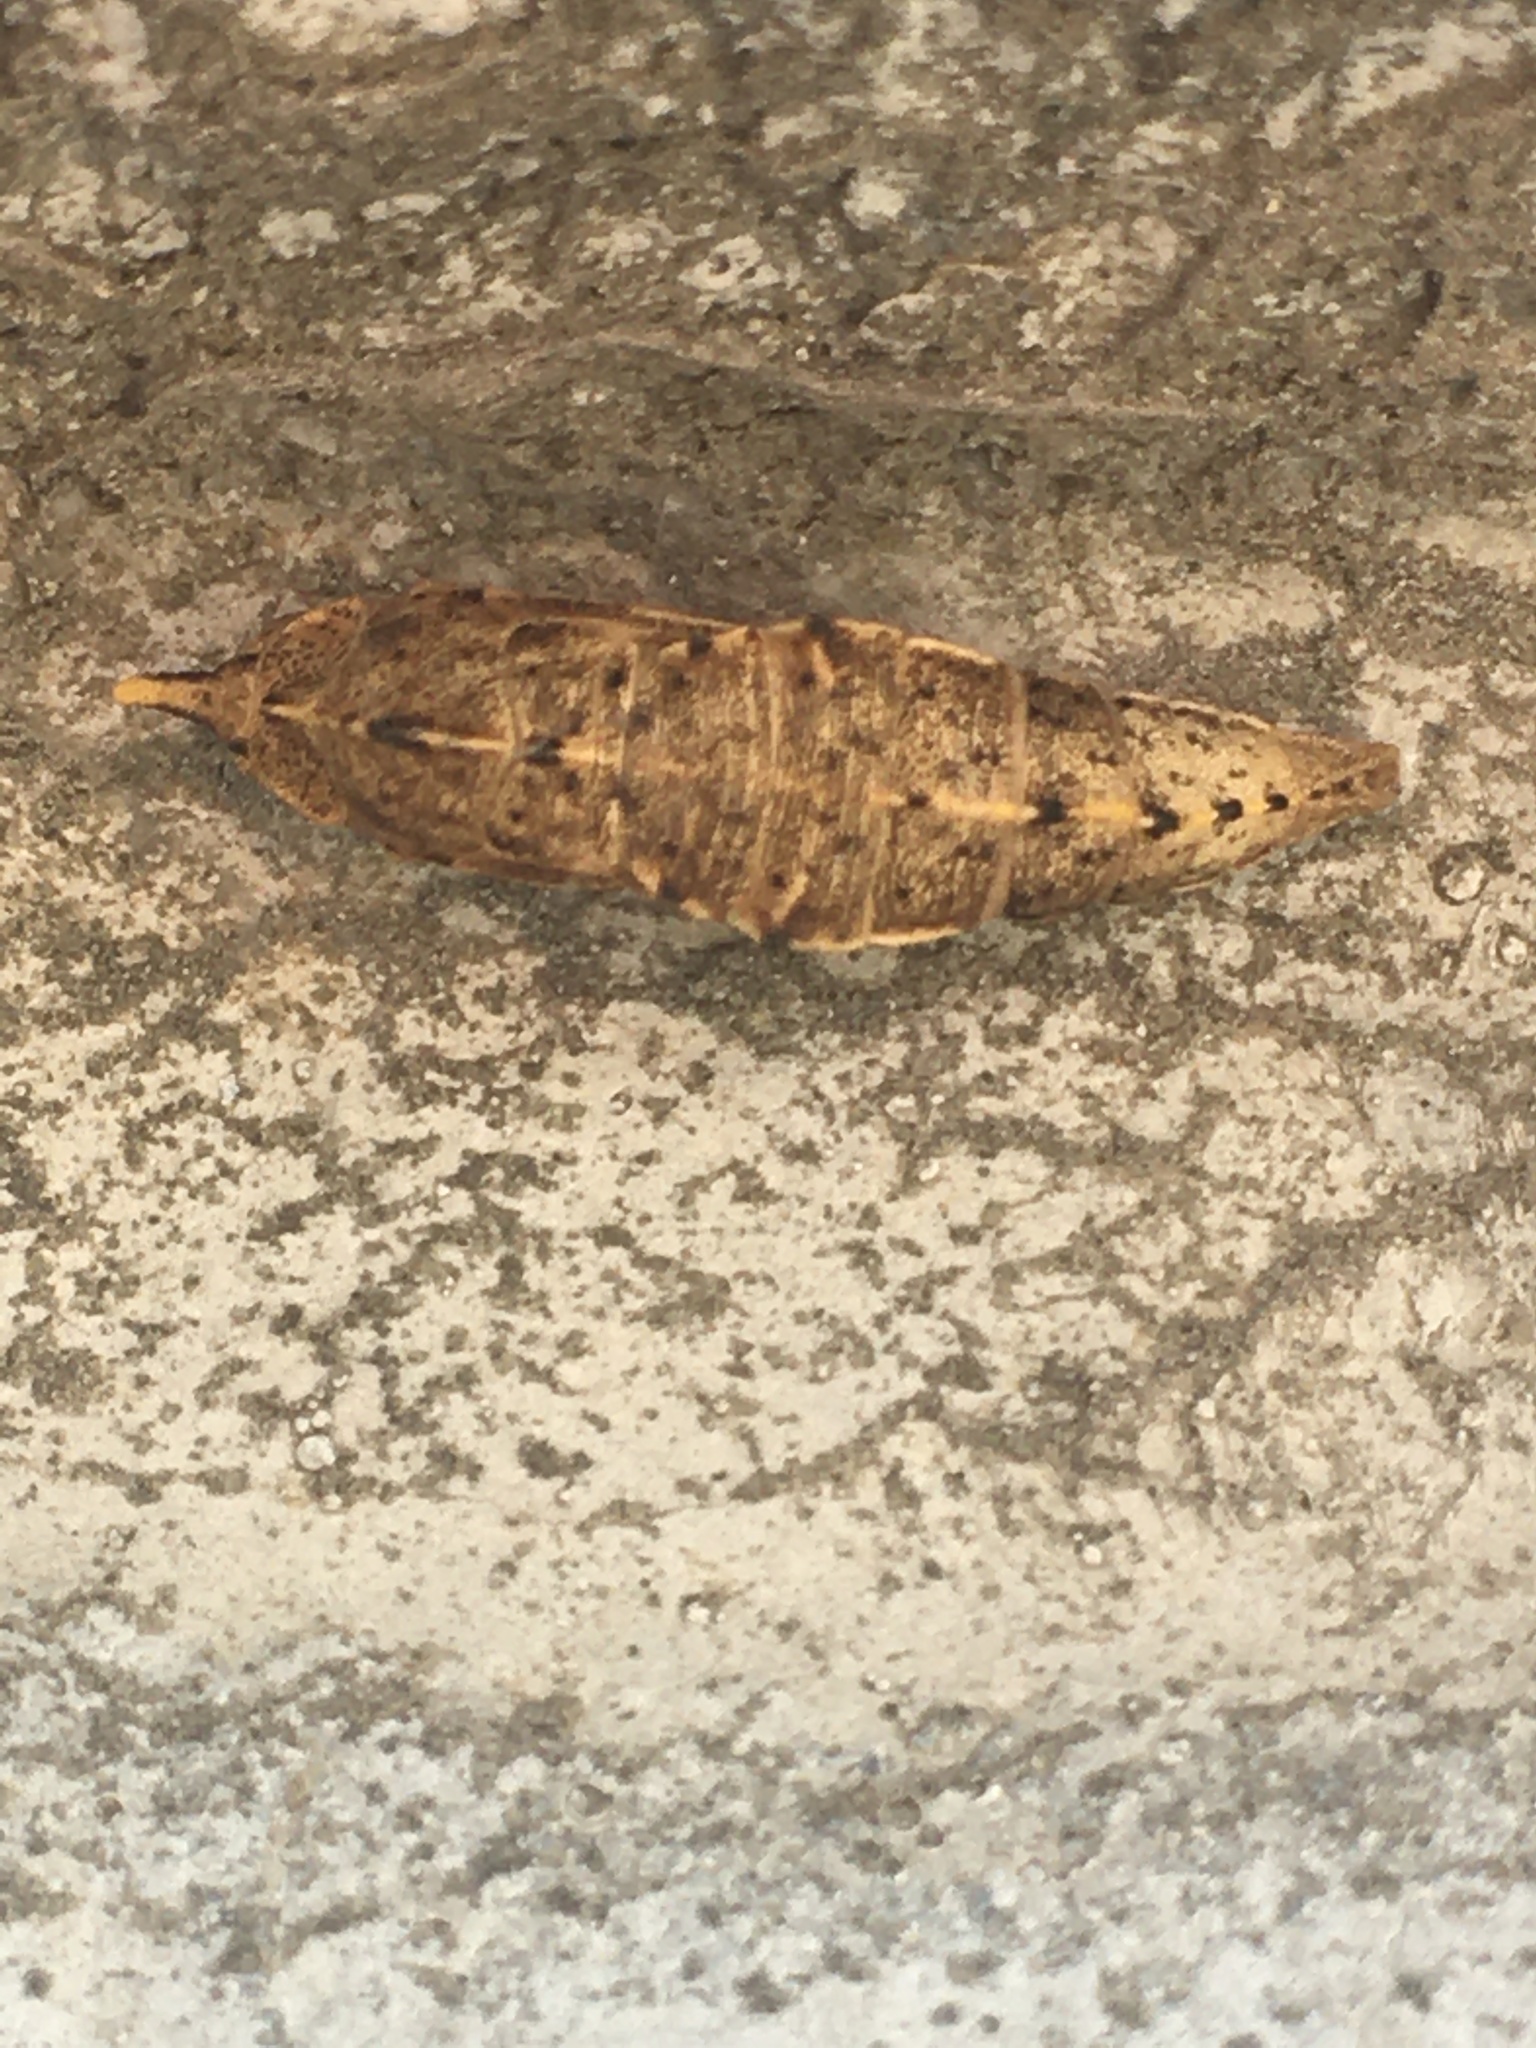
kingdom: Animalia
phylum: Arthropoda
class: Insecta
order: Lepidoptera
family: Pieridae
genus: Pieris
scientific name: Pieris brassicae
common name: Large white
